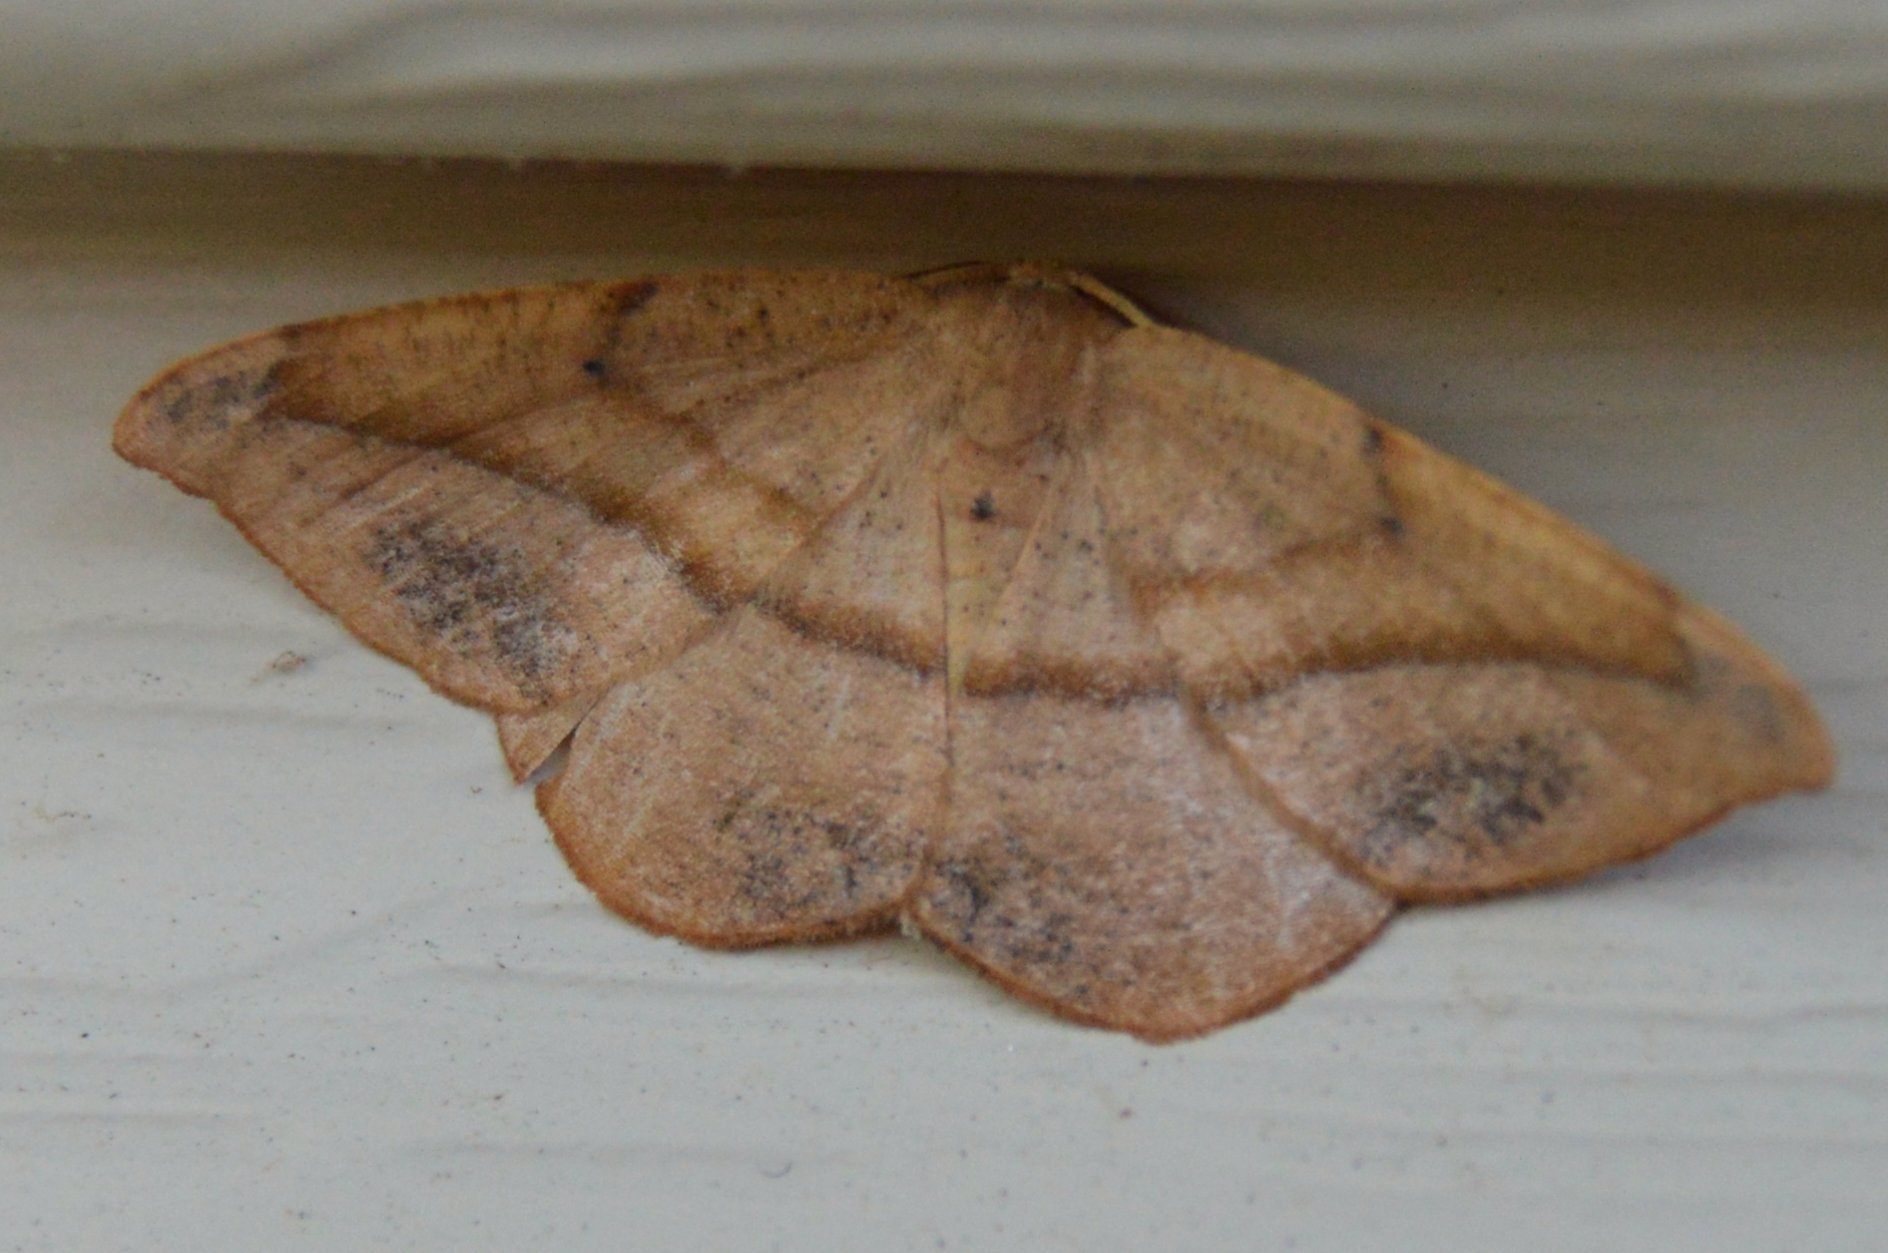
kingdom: Animalia
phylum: Arthropoda
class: Insecta
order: Lepidoptera
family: Geometridae
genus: Patalene
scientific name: Patalene olyzonaria
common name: Juniper geometer moth
